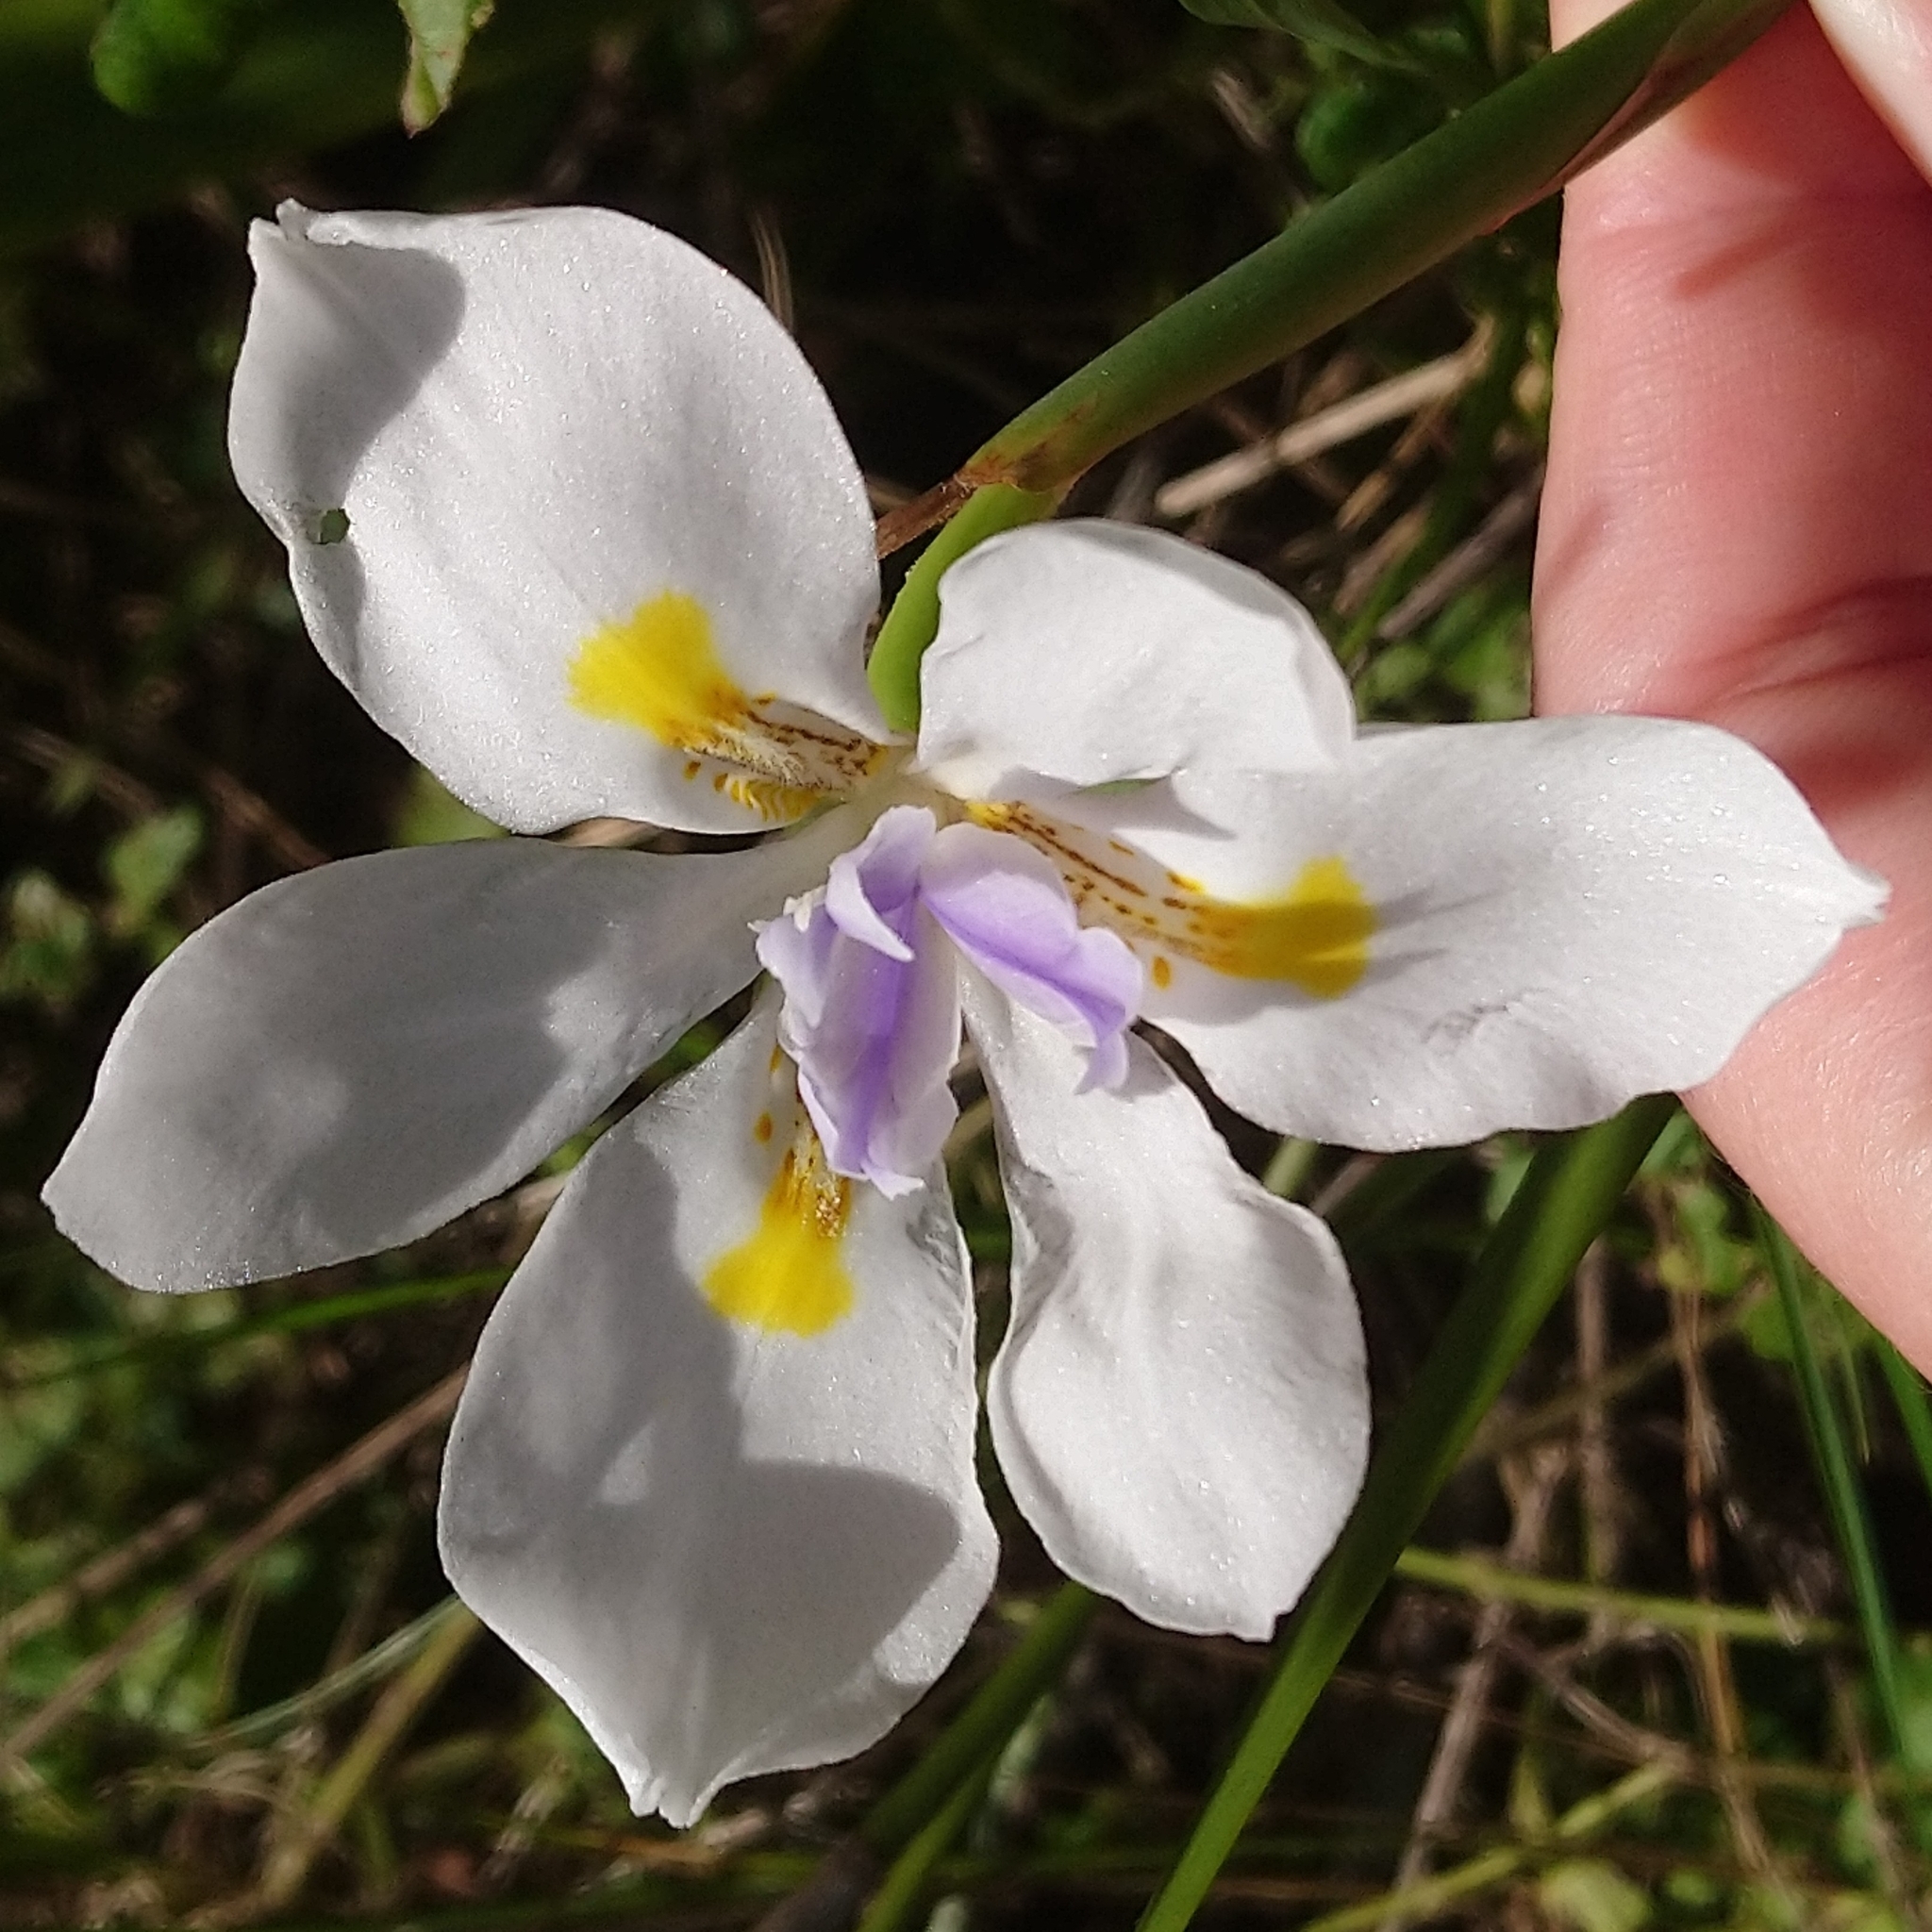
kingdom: Plantae
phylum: Tracheophyta
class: Liliopsida
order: Asparagales
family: Iridaceae
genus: Dietes
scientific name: Dietes grandiflora
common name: Wild iris
